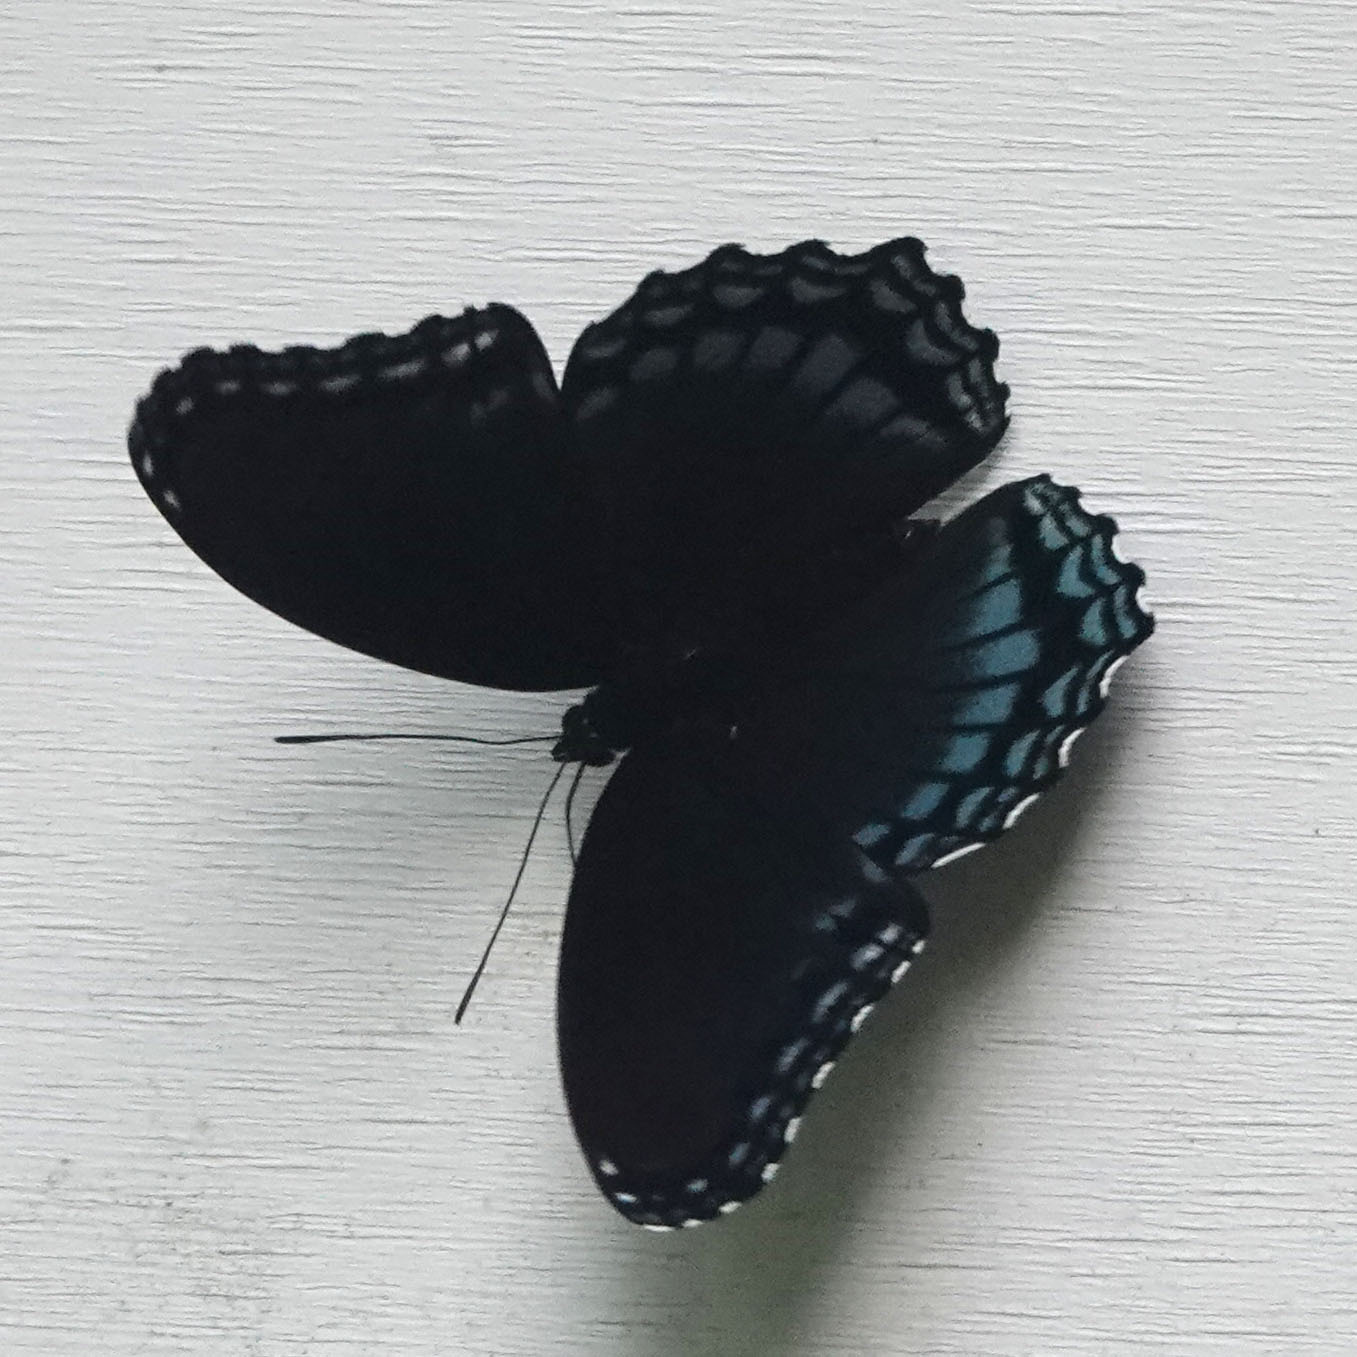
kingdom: Animalia
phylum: Arthropoda
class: Insecta
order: Lepidoptera
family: Nymphalidae
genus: Limenitis
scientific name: Limenitis astyanax
